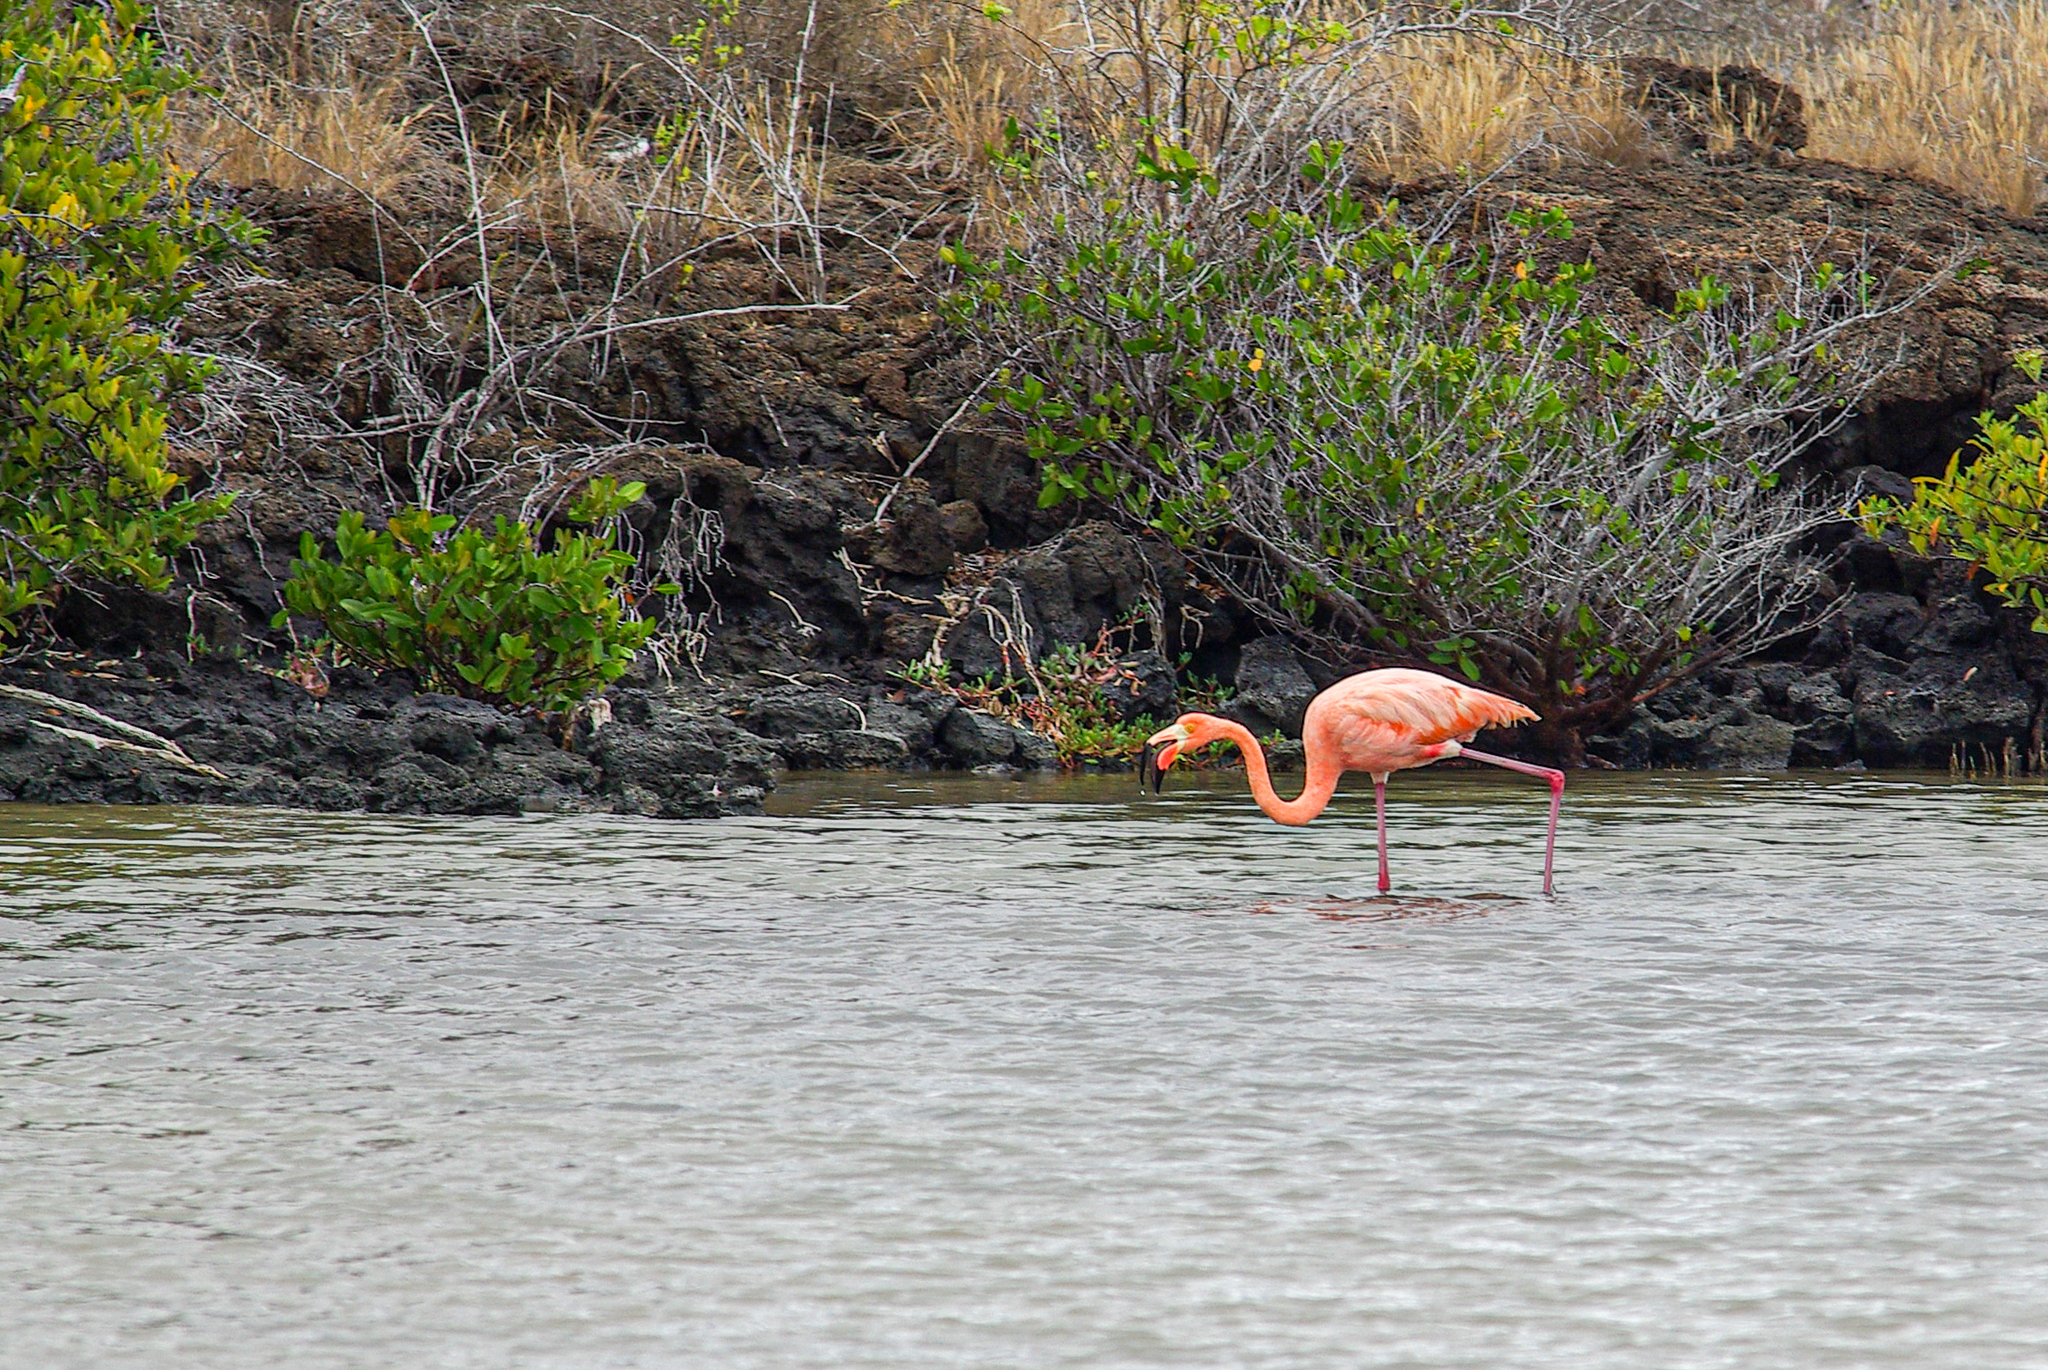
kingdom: Animalia
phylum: Chordata
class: Aves
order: Phoenicopteriformes
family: Phoenicopteridae
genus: Phoenicopterus
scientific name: Phoenicopterus ruber
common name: American flamingo
